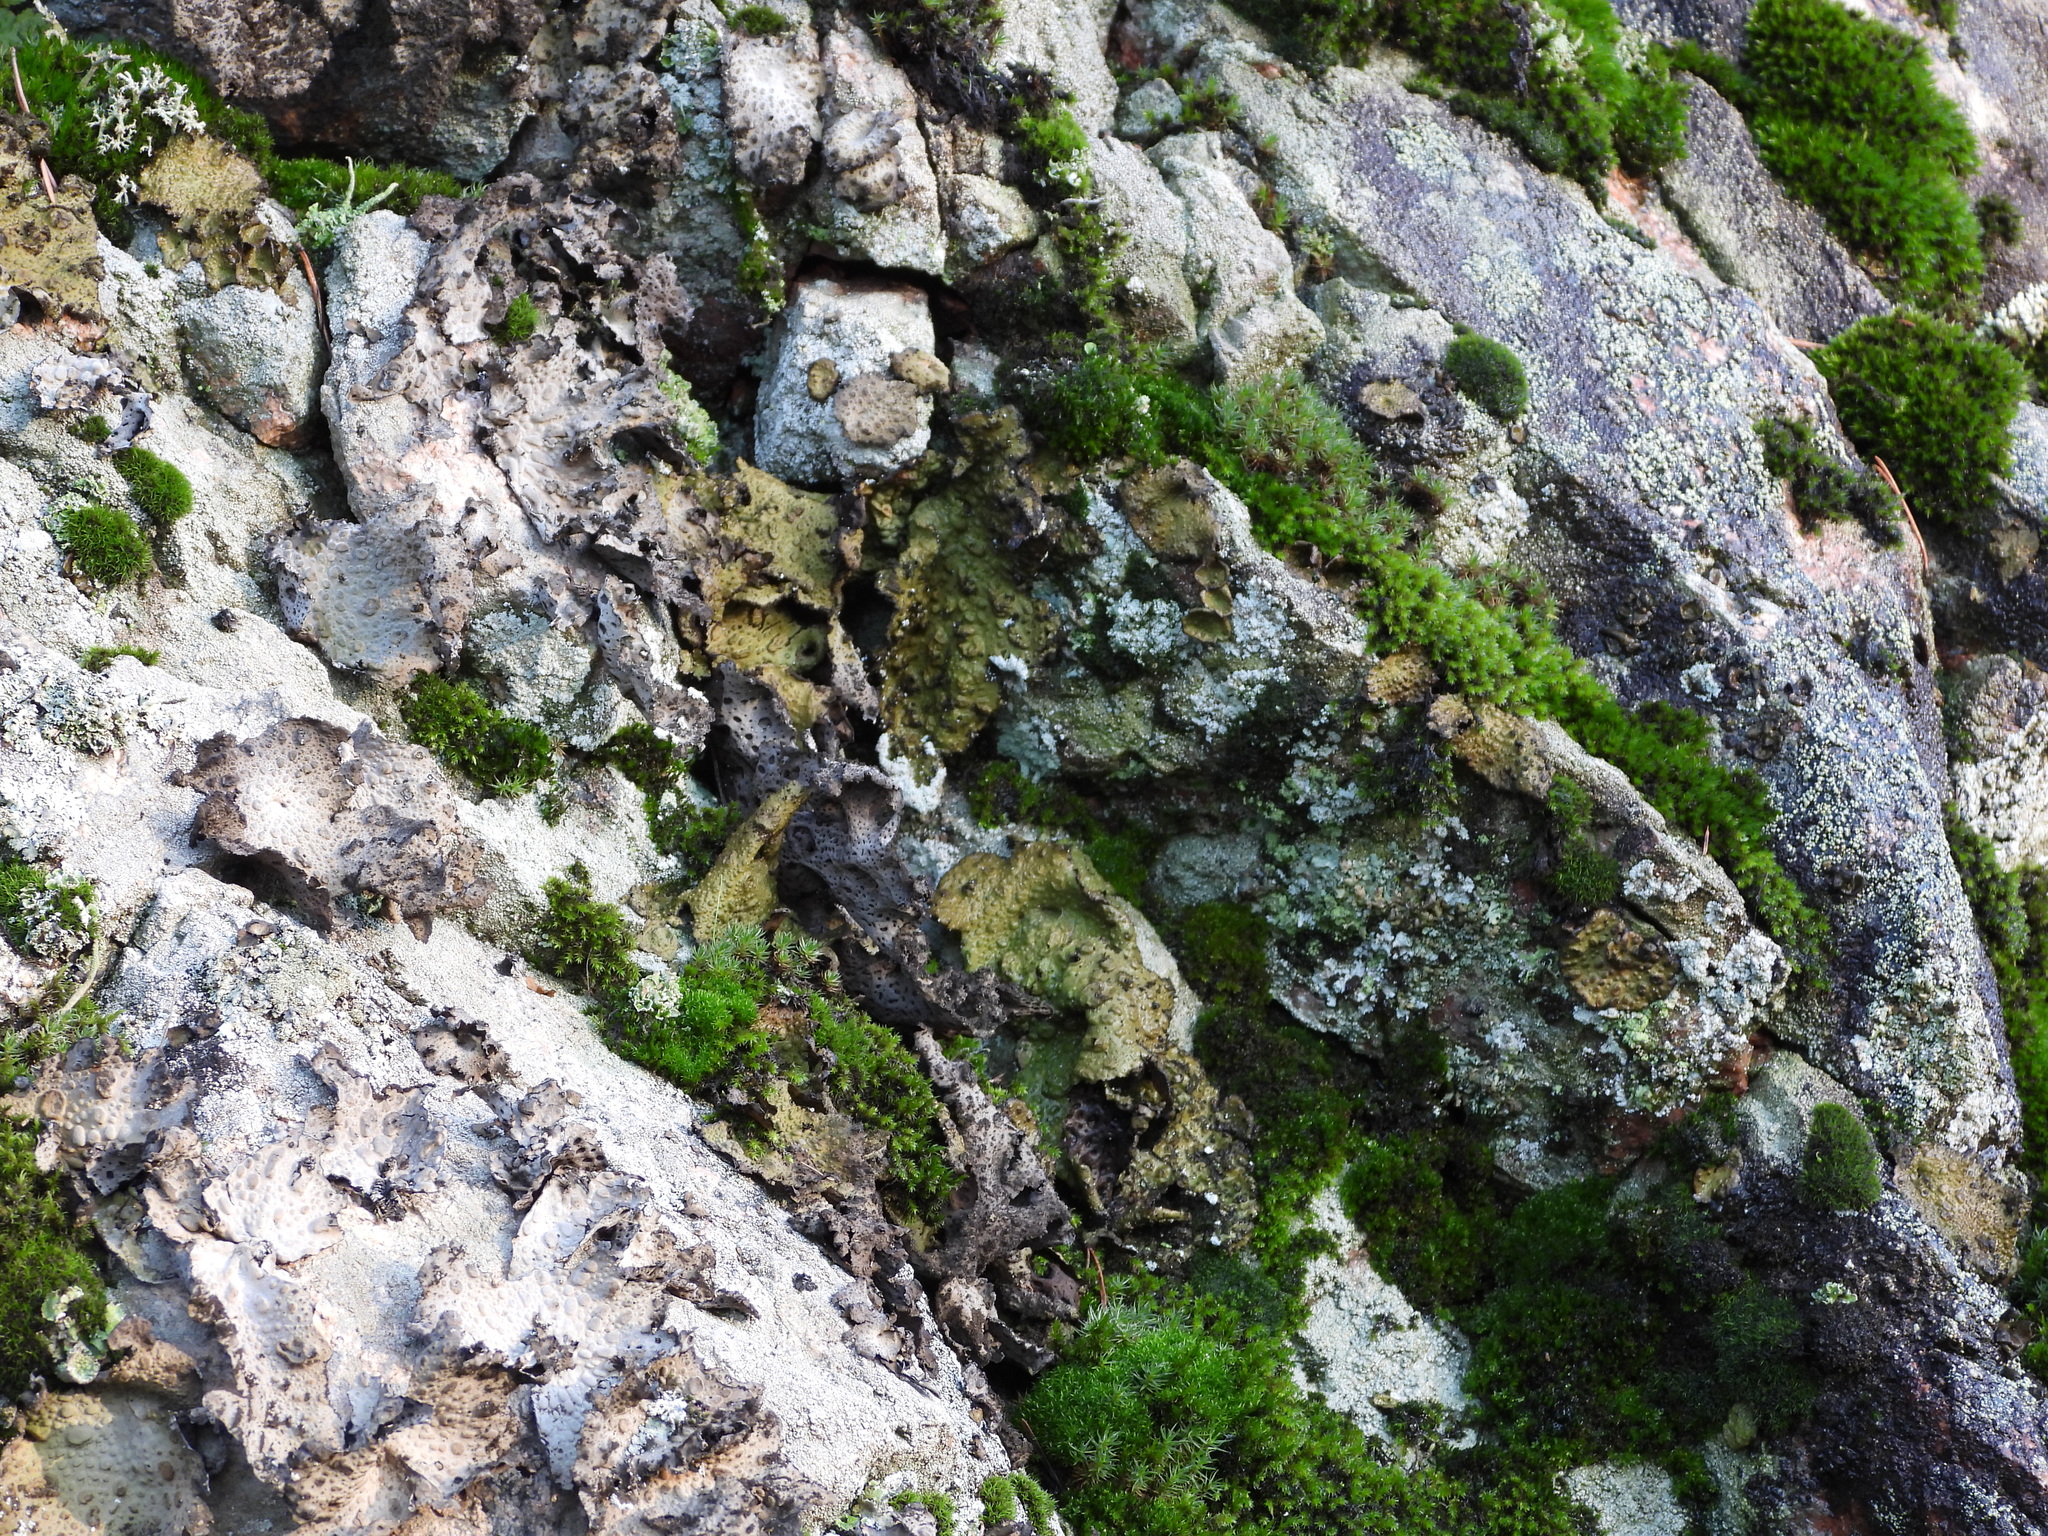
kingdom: Fungi
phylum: Ascomycota
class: Lecanoromycetes
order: Umbilicariales
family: Umbilicariaceae
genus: Lasallia
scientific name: Lasallia pustulata
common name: Blistered toadskin lichen
